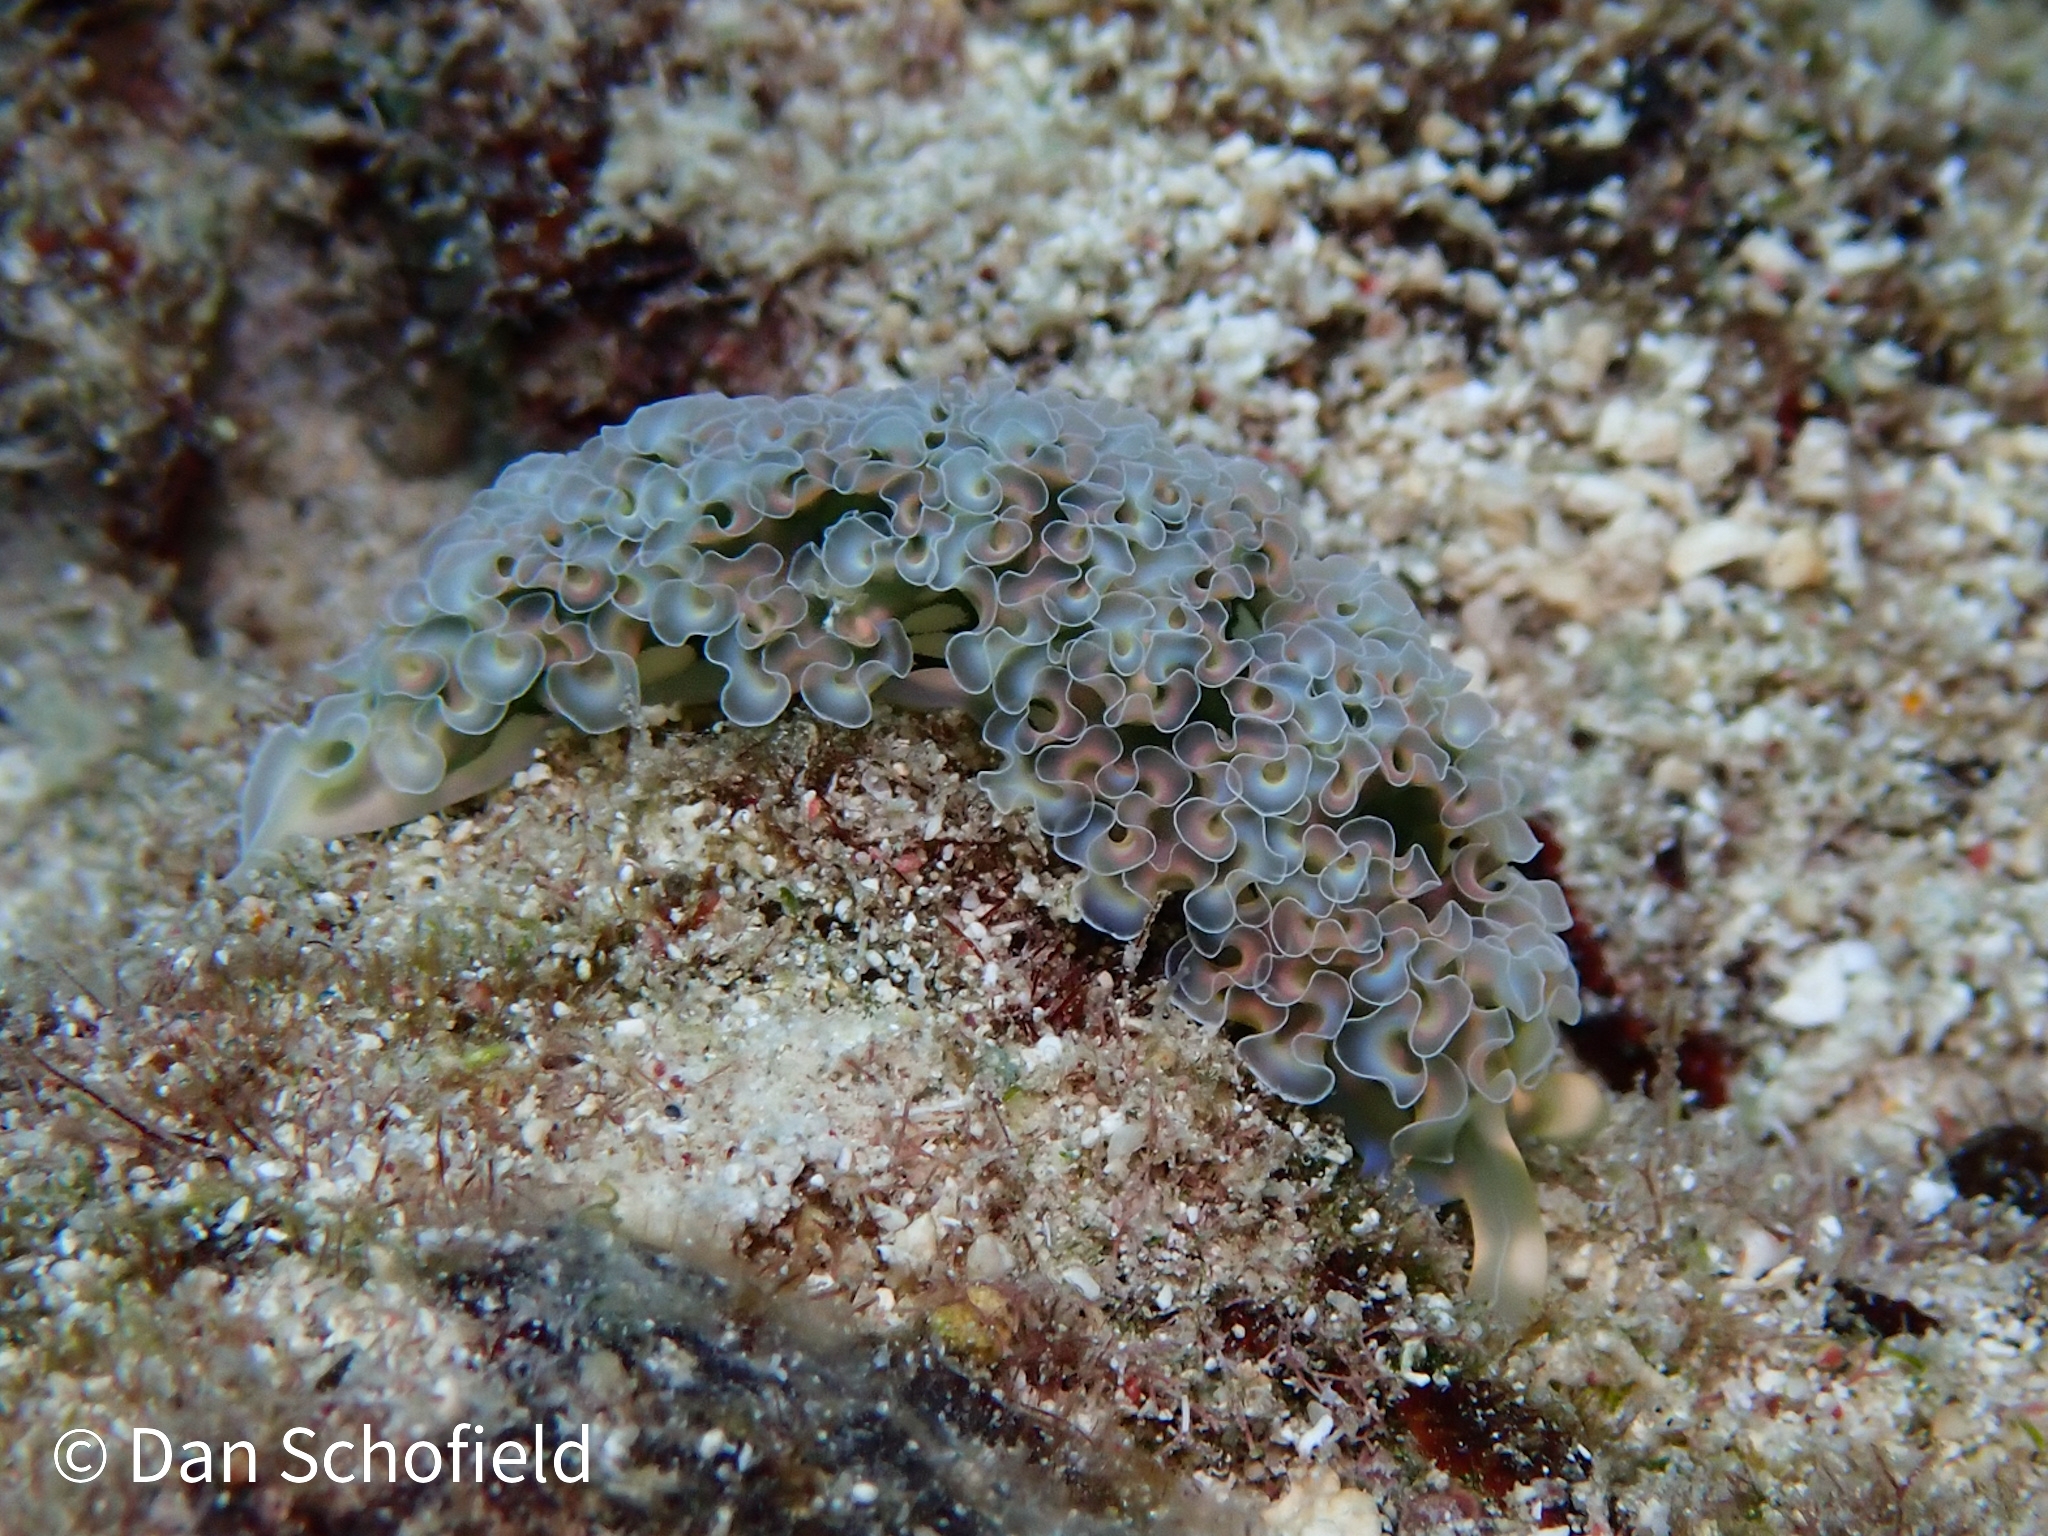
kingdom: Animalia
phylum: Mollusca
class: Gastropoda
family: Plakobranchidae
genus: Elysia
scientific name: Elysia crispata
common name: Lettuce slug
